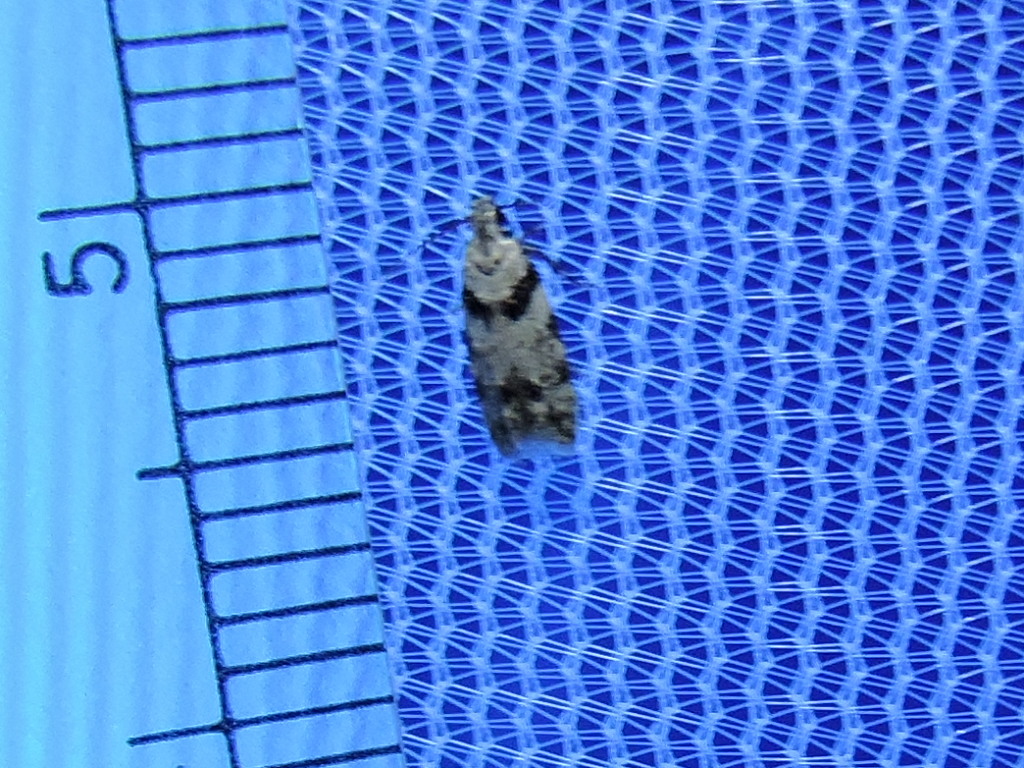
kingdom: Animalia
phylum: Arthropoda
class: Insecta
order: Lepidoptera
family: Gelechiidae
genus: Pseudotelphusa
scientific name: Pseudotelphusa palliderosacella
